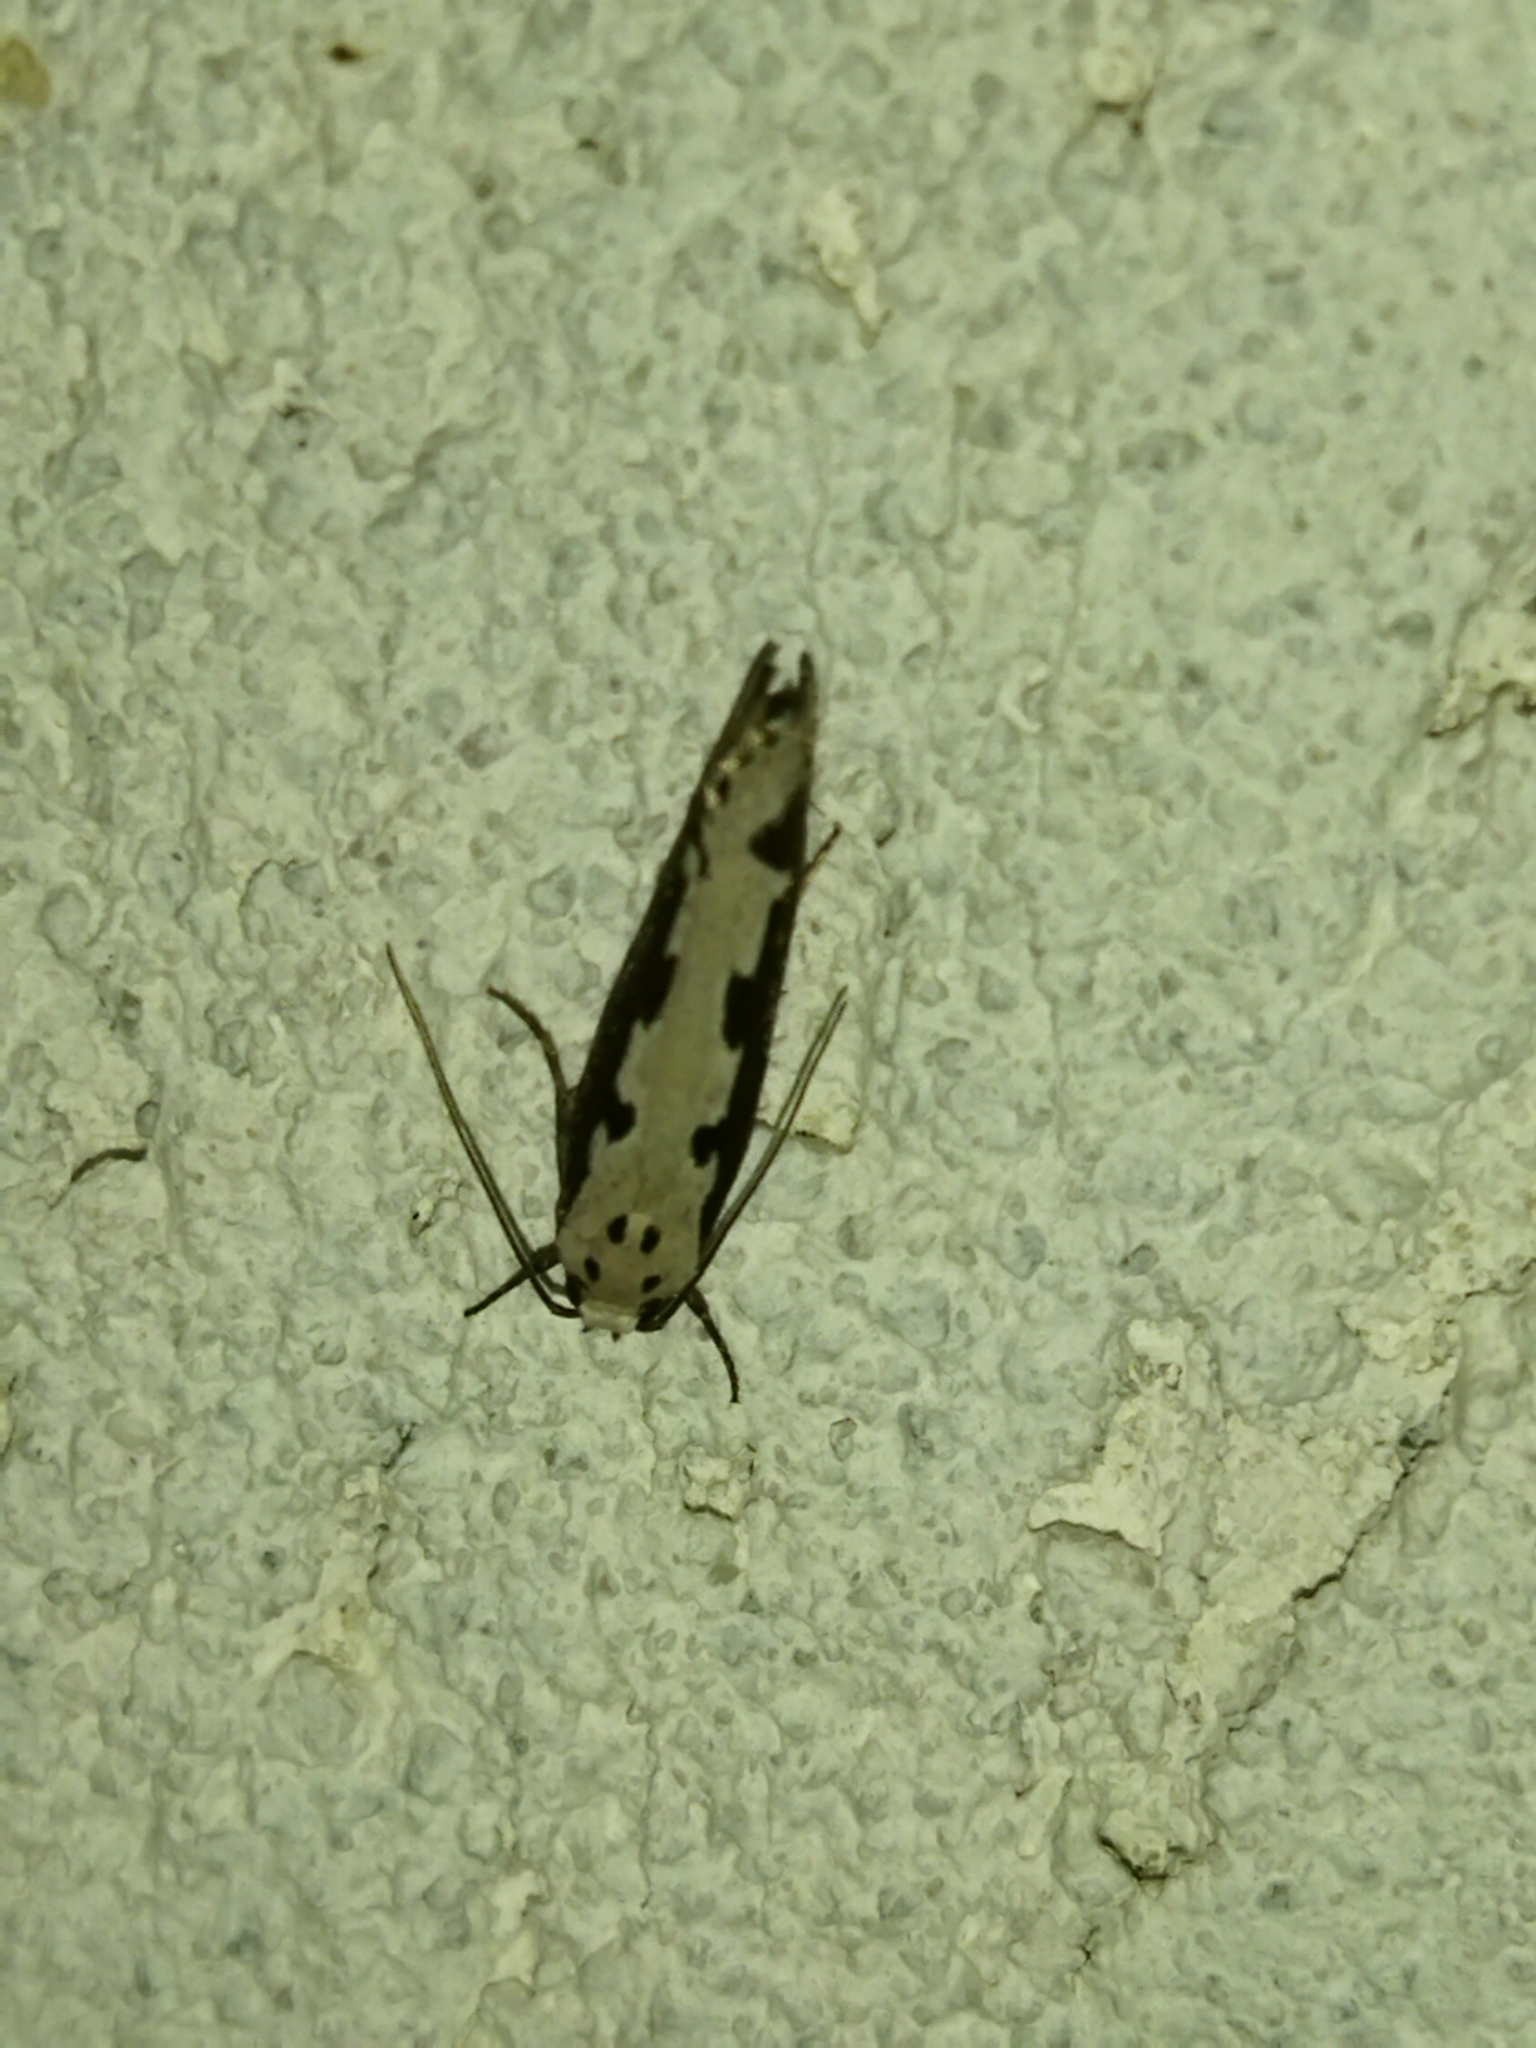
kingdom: Animalia
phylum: Arthropoda
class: Insecta
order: Lepidoptera
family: Ethmiidae
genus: Ethmia
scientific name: Ethmia bipunctella
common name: Bordered ermel
